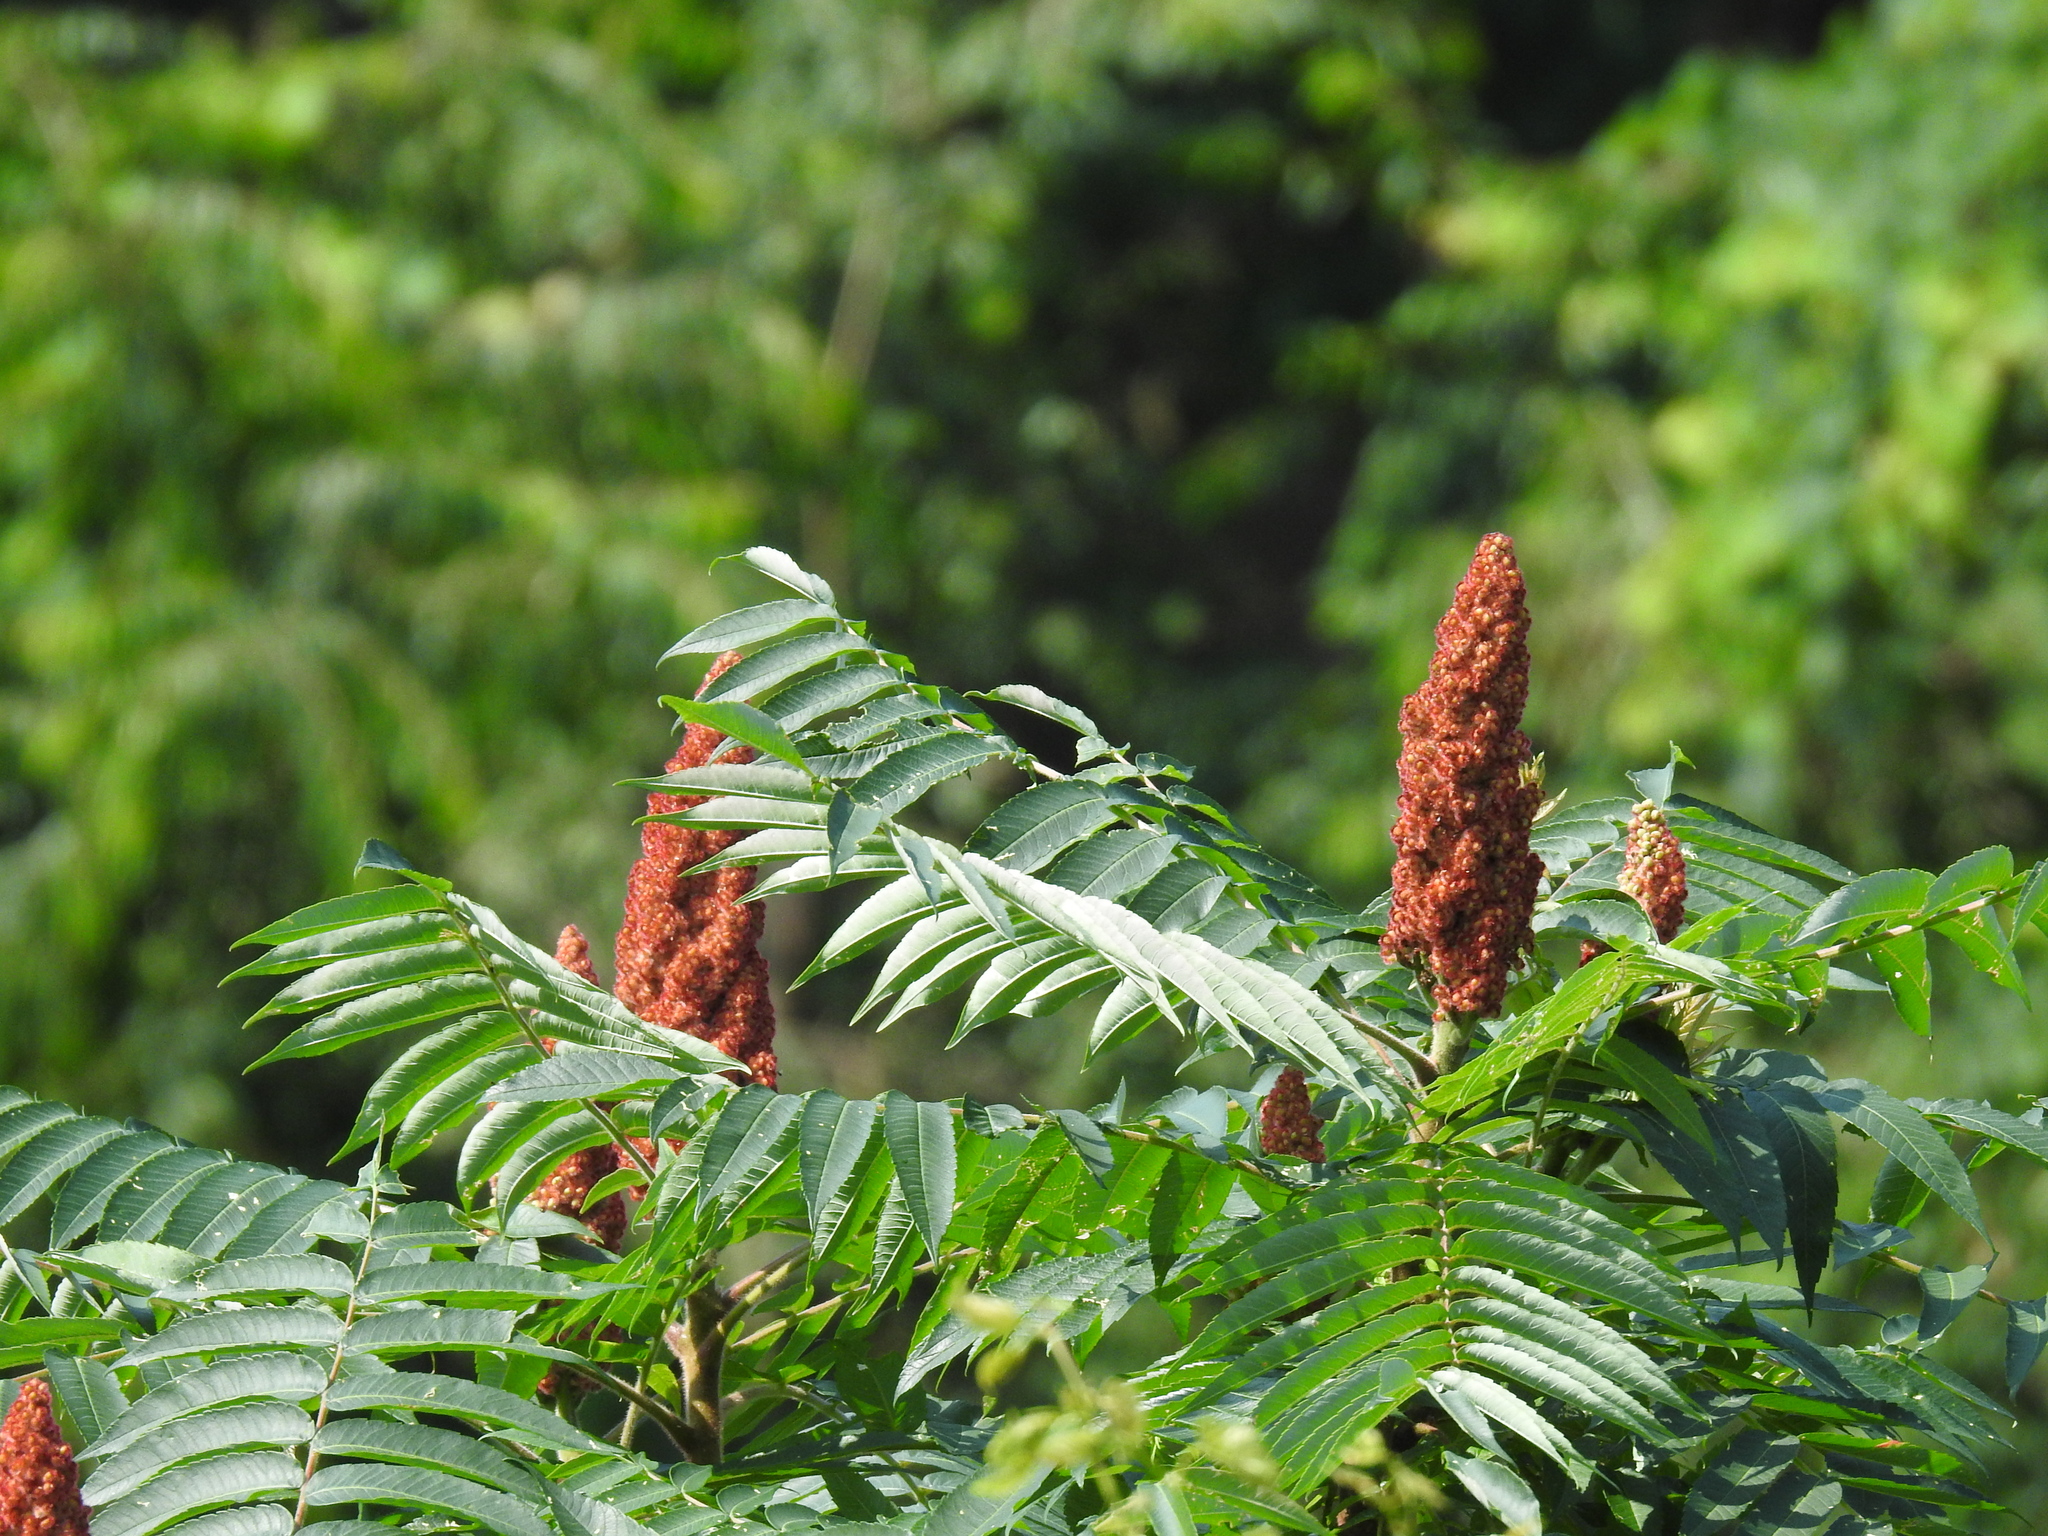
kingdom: Plantae
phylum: Tracheophyta
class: Magnoliopsida
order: Sapindales
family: Anacardiaceae
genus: Rhus
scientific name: Rhus typhina
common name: Staghorn sumac
